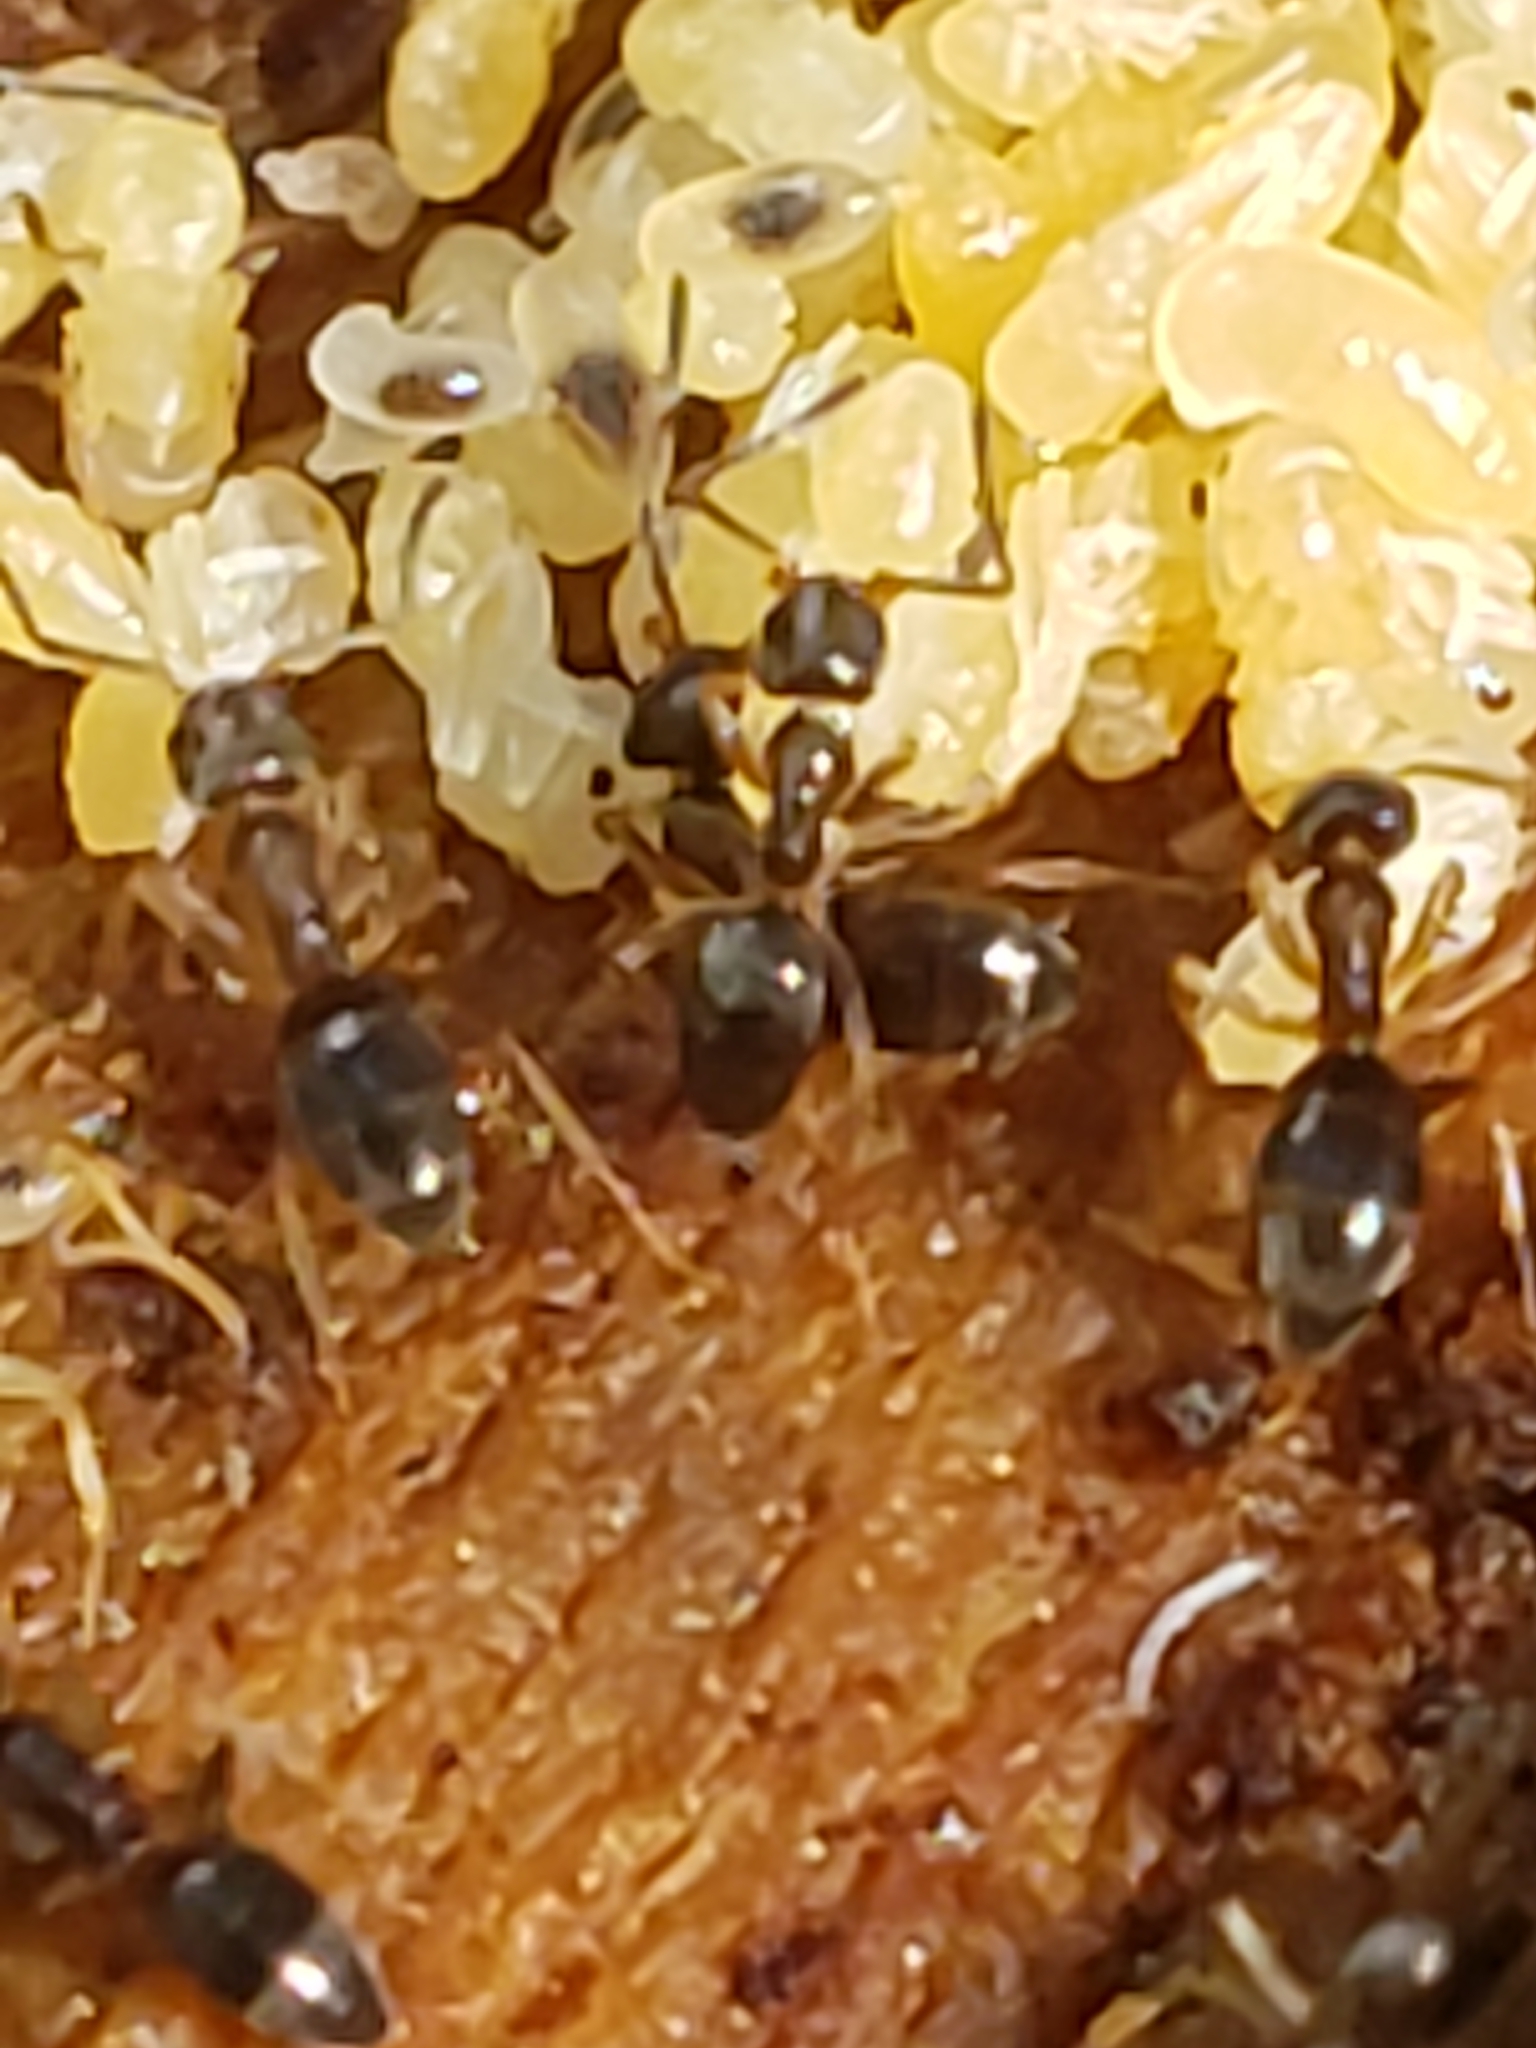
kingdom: Animalia
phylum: Arthropoda
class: Insecta
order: Hymenoptera
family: Formicidae
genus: Tapinoma
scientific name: Tapinoma sessile
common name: Odorous house ant
